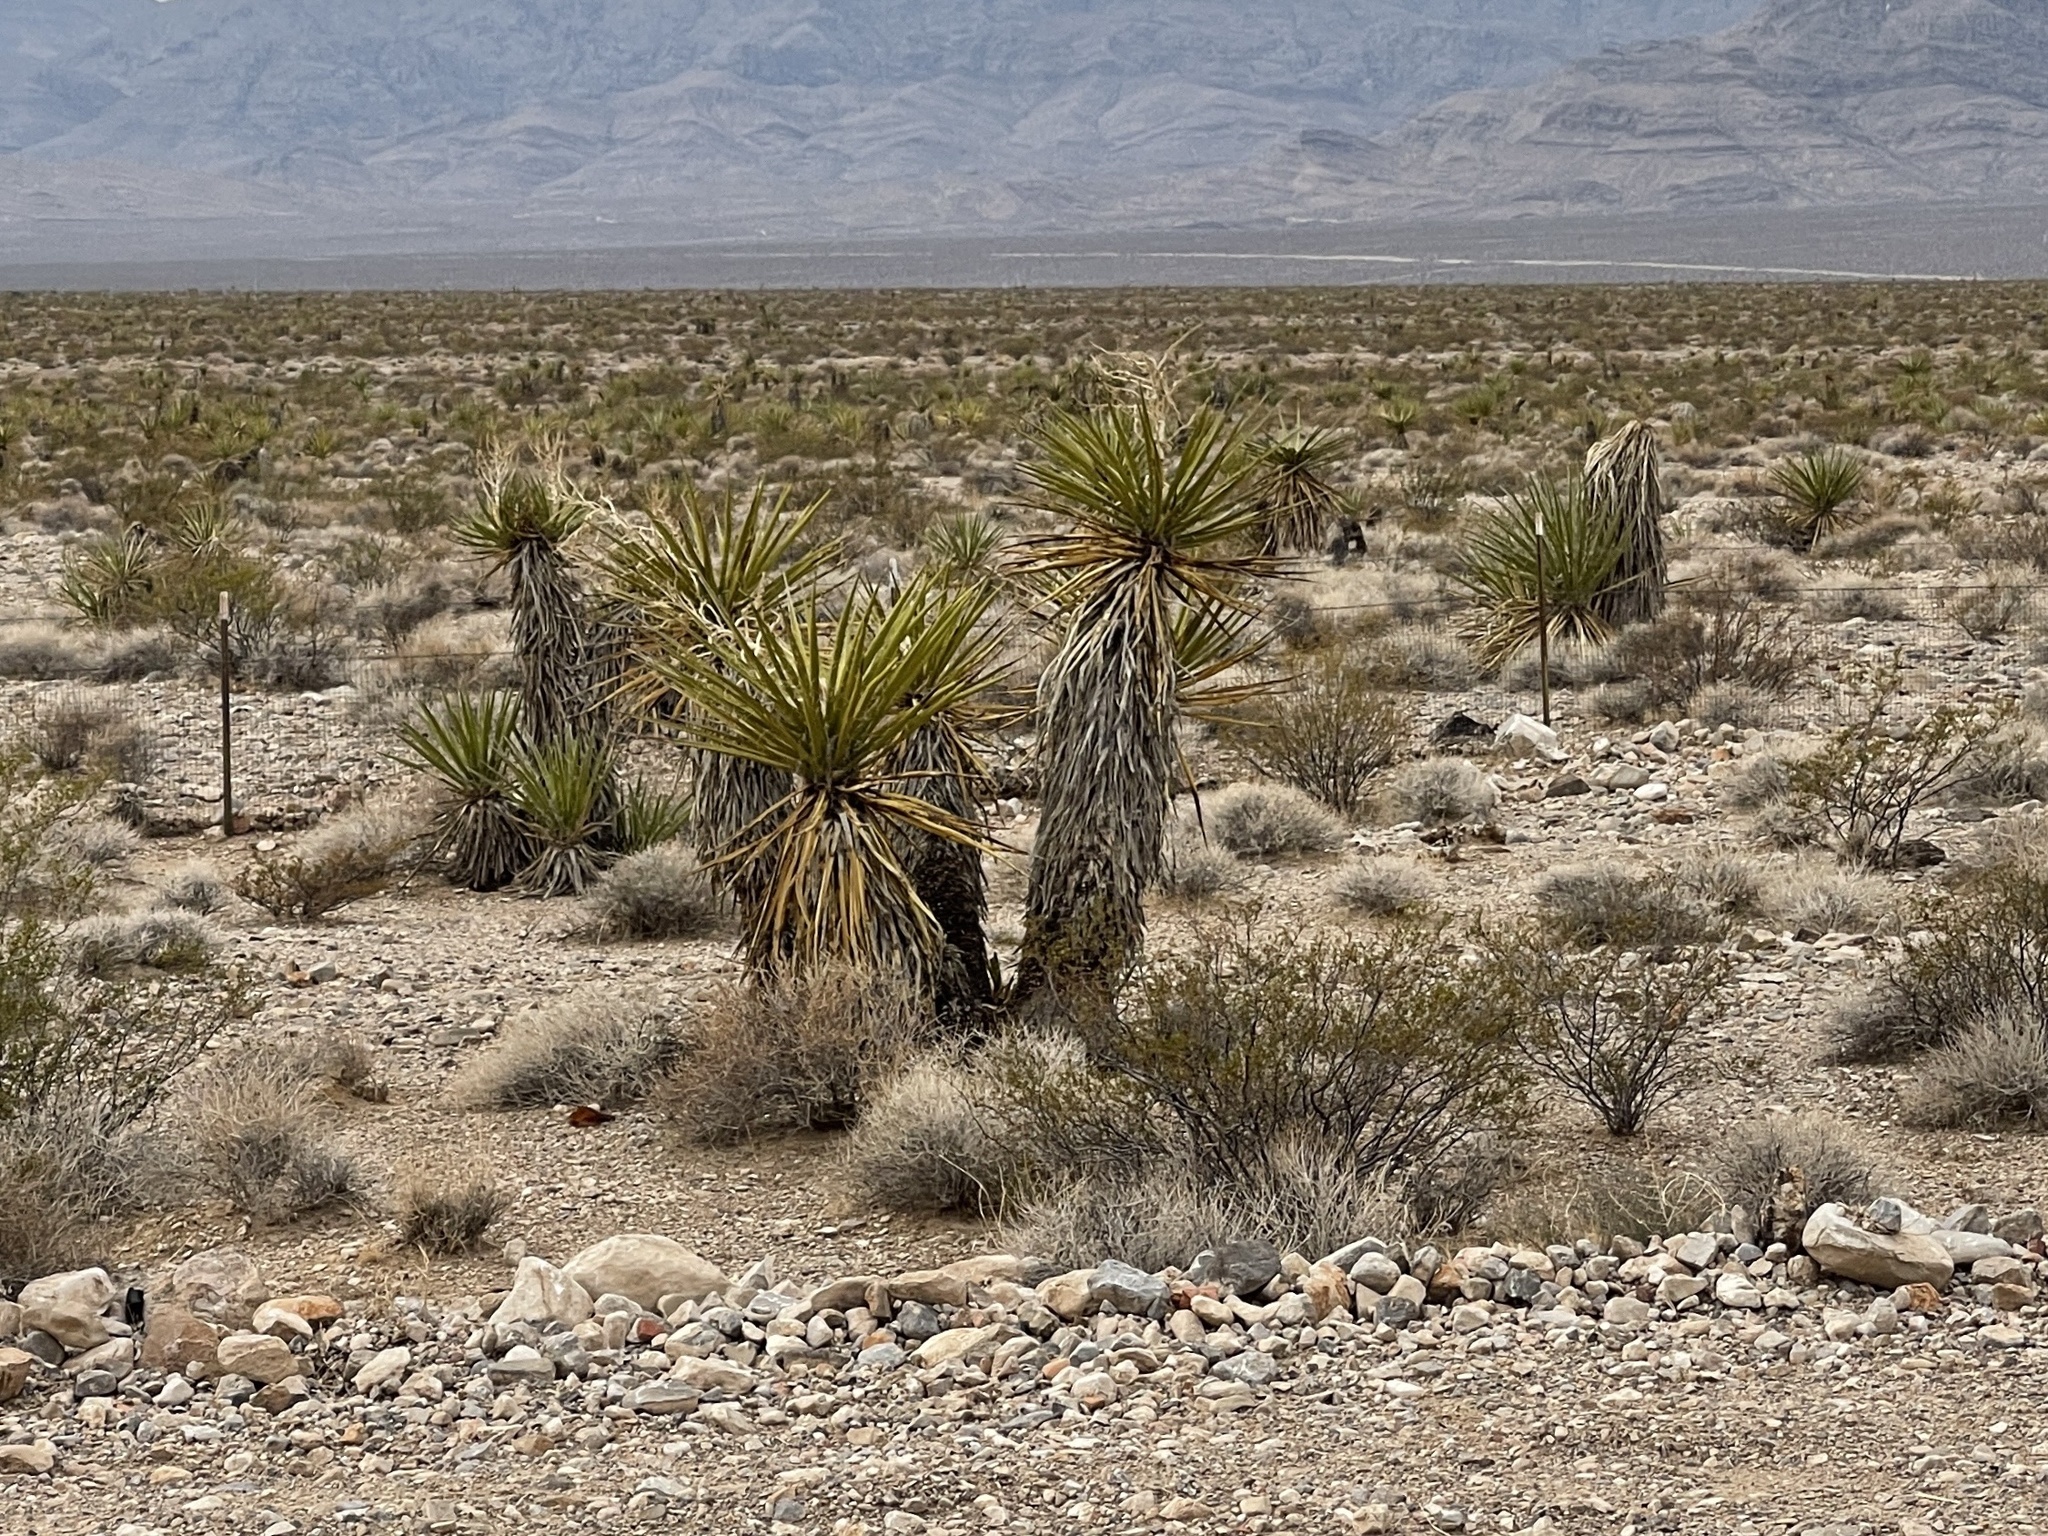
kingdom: Plantae
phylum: Tracheophyta
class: Liliopsida
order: Asparagales
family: Asparagaceae
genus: Yucca
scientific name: Yucca schidigera
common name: Mojave yucca
